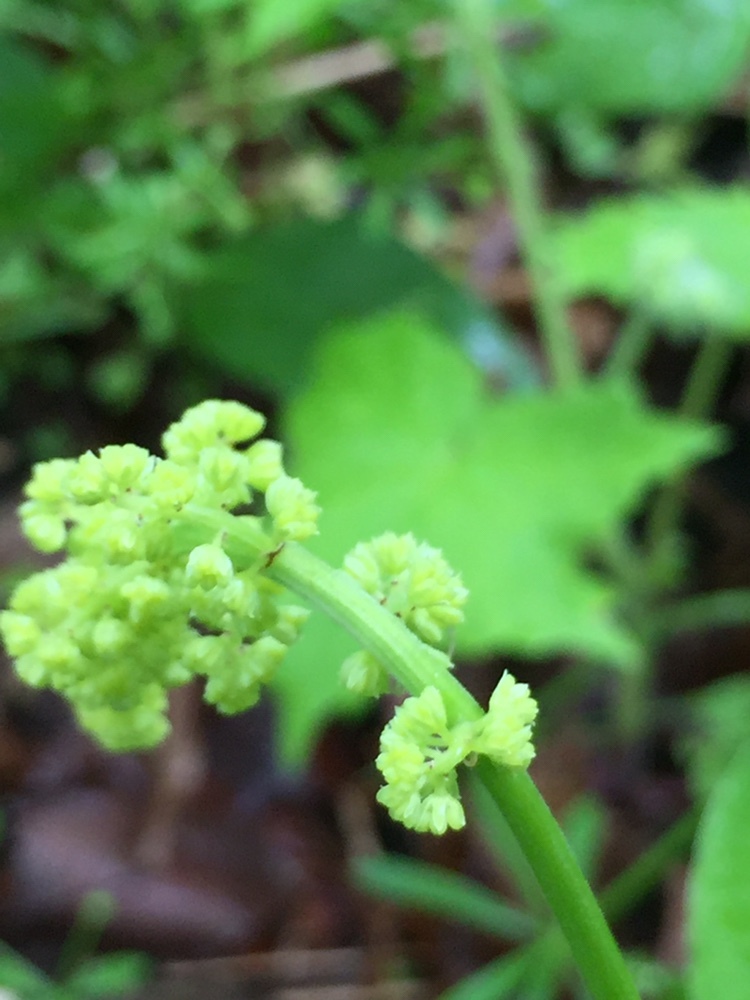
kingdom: Plantae
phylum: Tracheophyta
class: Liliopsida
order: Asparagales
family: Asparagaceae
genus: Maianthemum
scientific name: Maianthemum racemosum
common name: False spikenard
